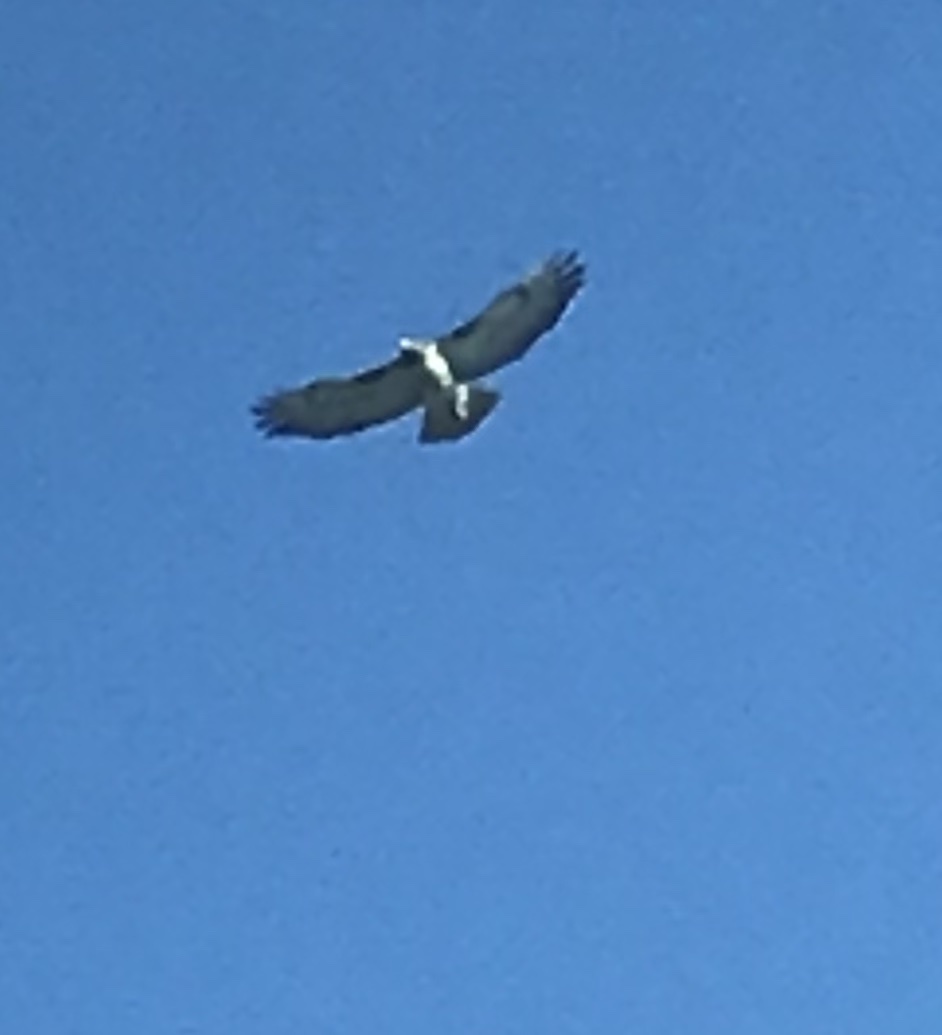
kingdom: Animalia
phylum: Chordata
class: Aves
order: Accipitriformes
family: Accipitridae
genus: Buteo
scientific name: Buteo jamaicensis
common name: Red-tailed hawk
